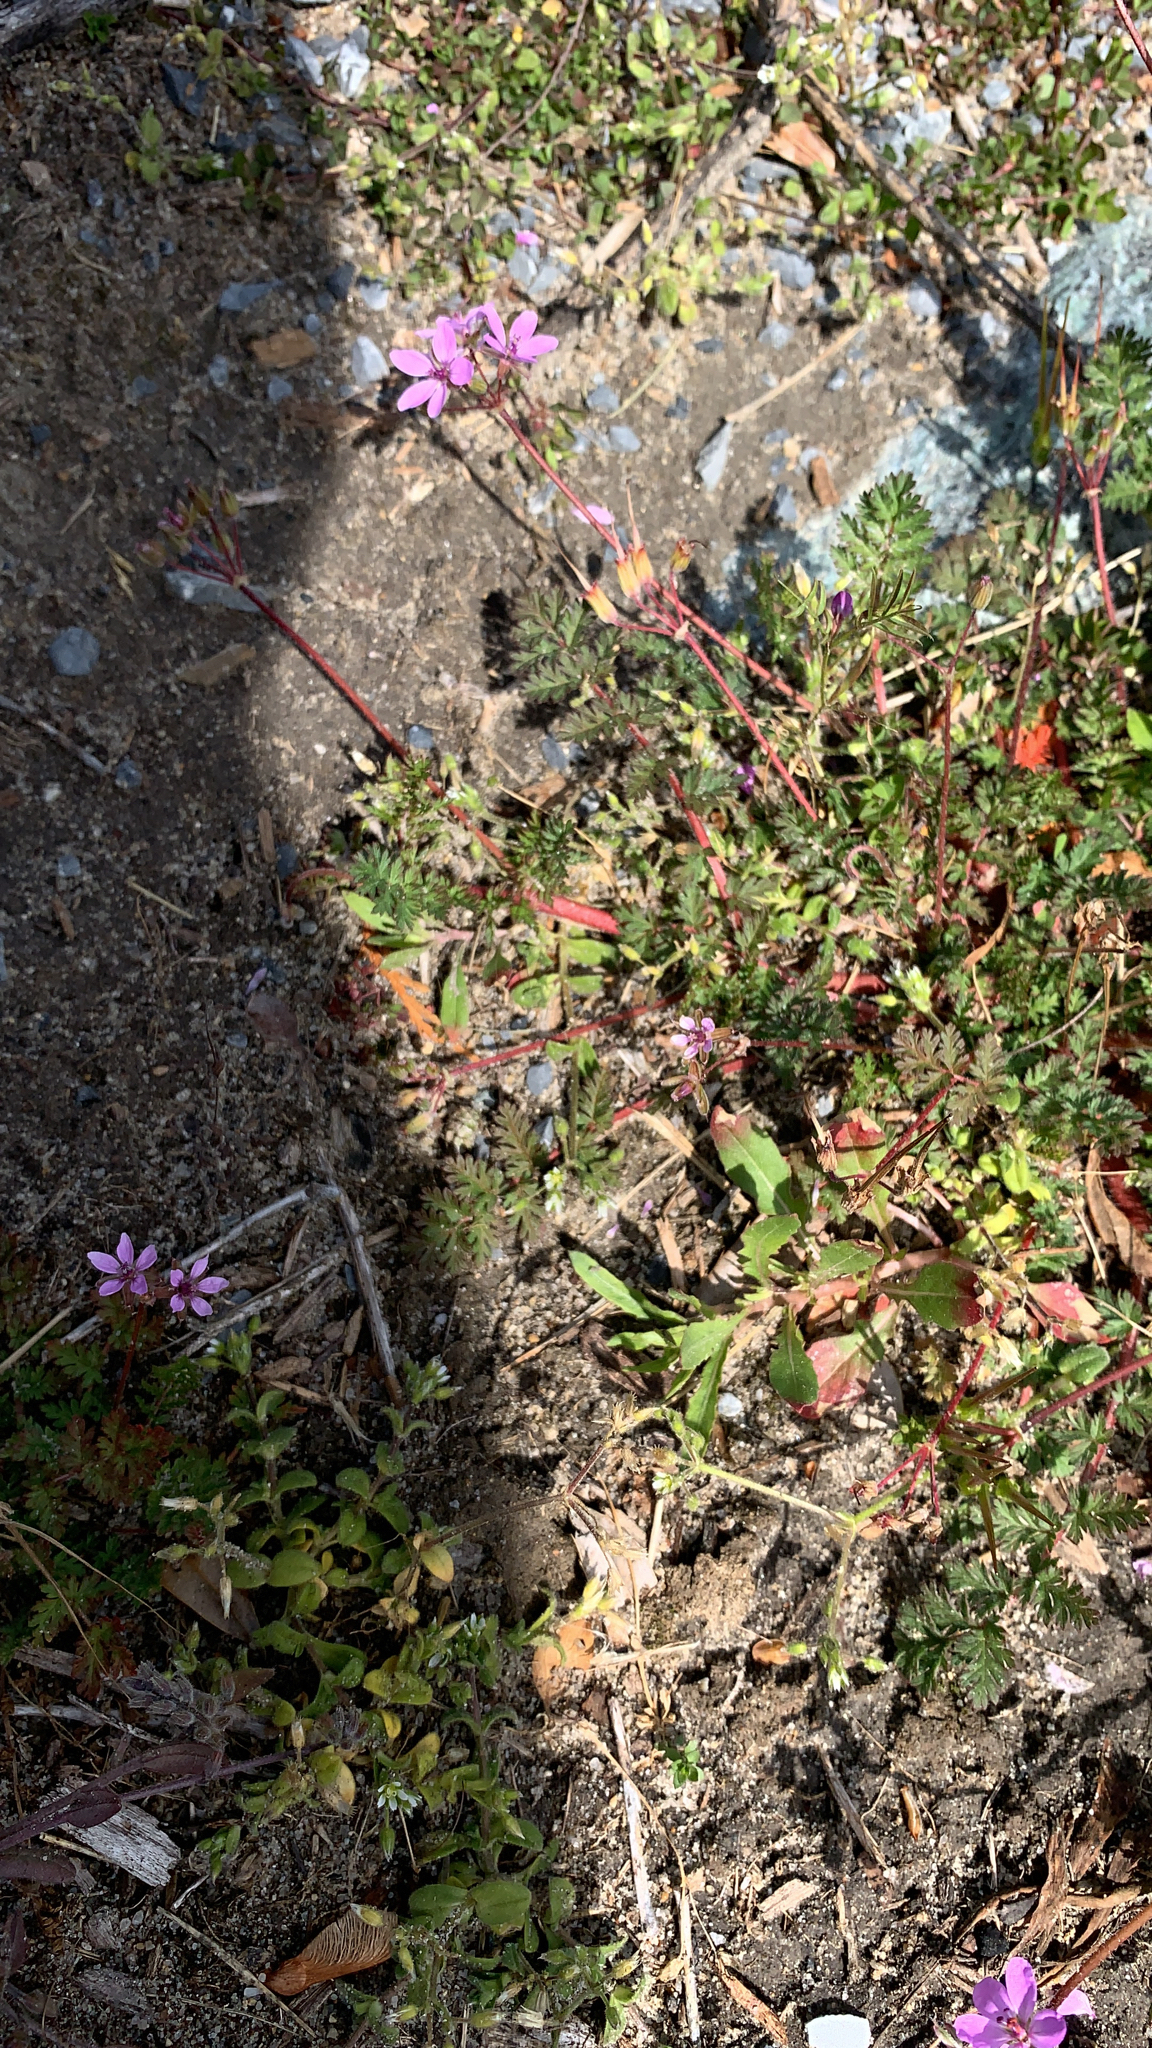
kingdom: Plantae
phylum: Tracheophyta
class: Magnoliopsida
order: Geraniales
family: Geraniaceae
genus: Erodium
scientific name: Erodium cicutarium
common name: Common stork's-bill
